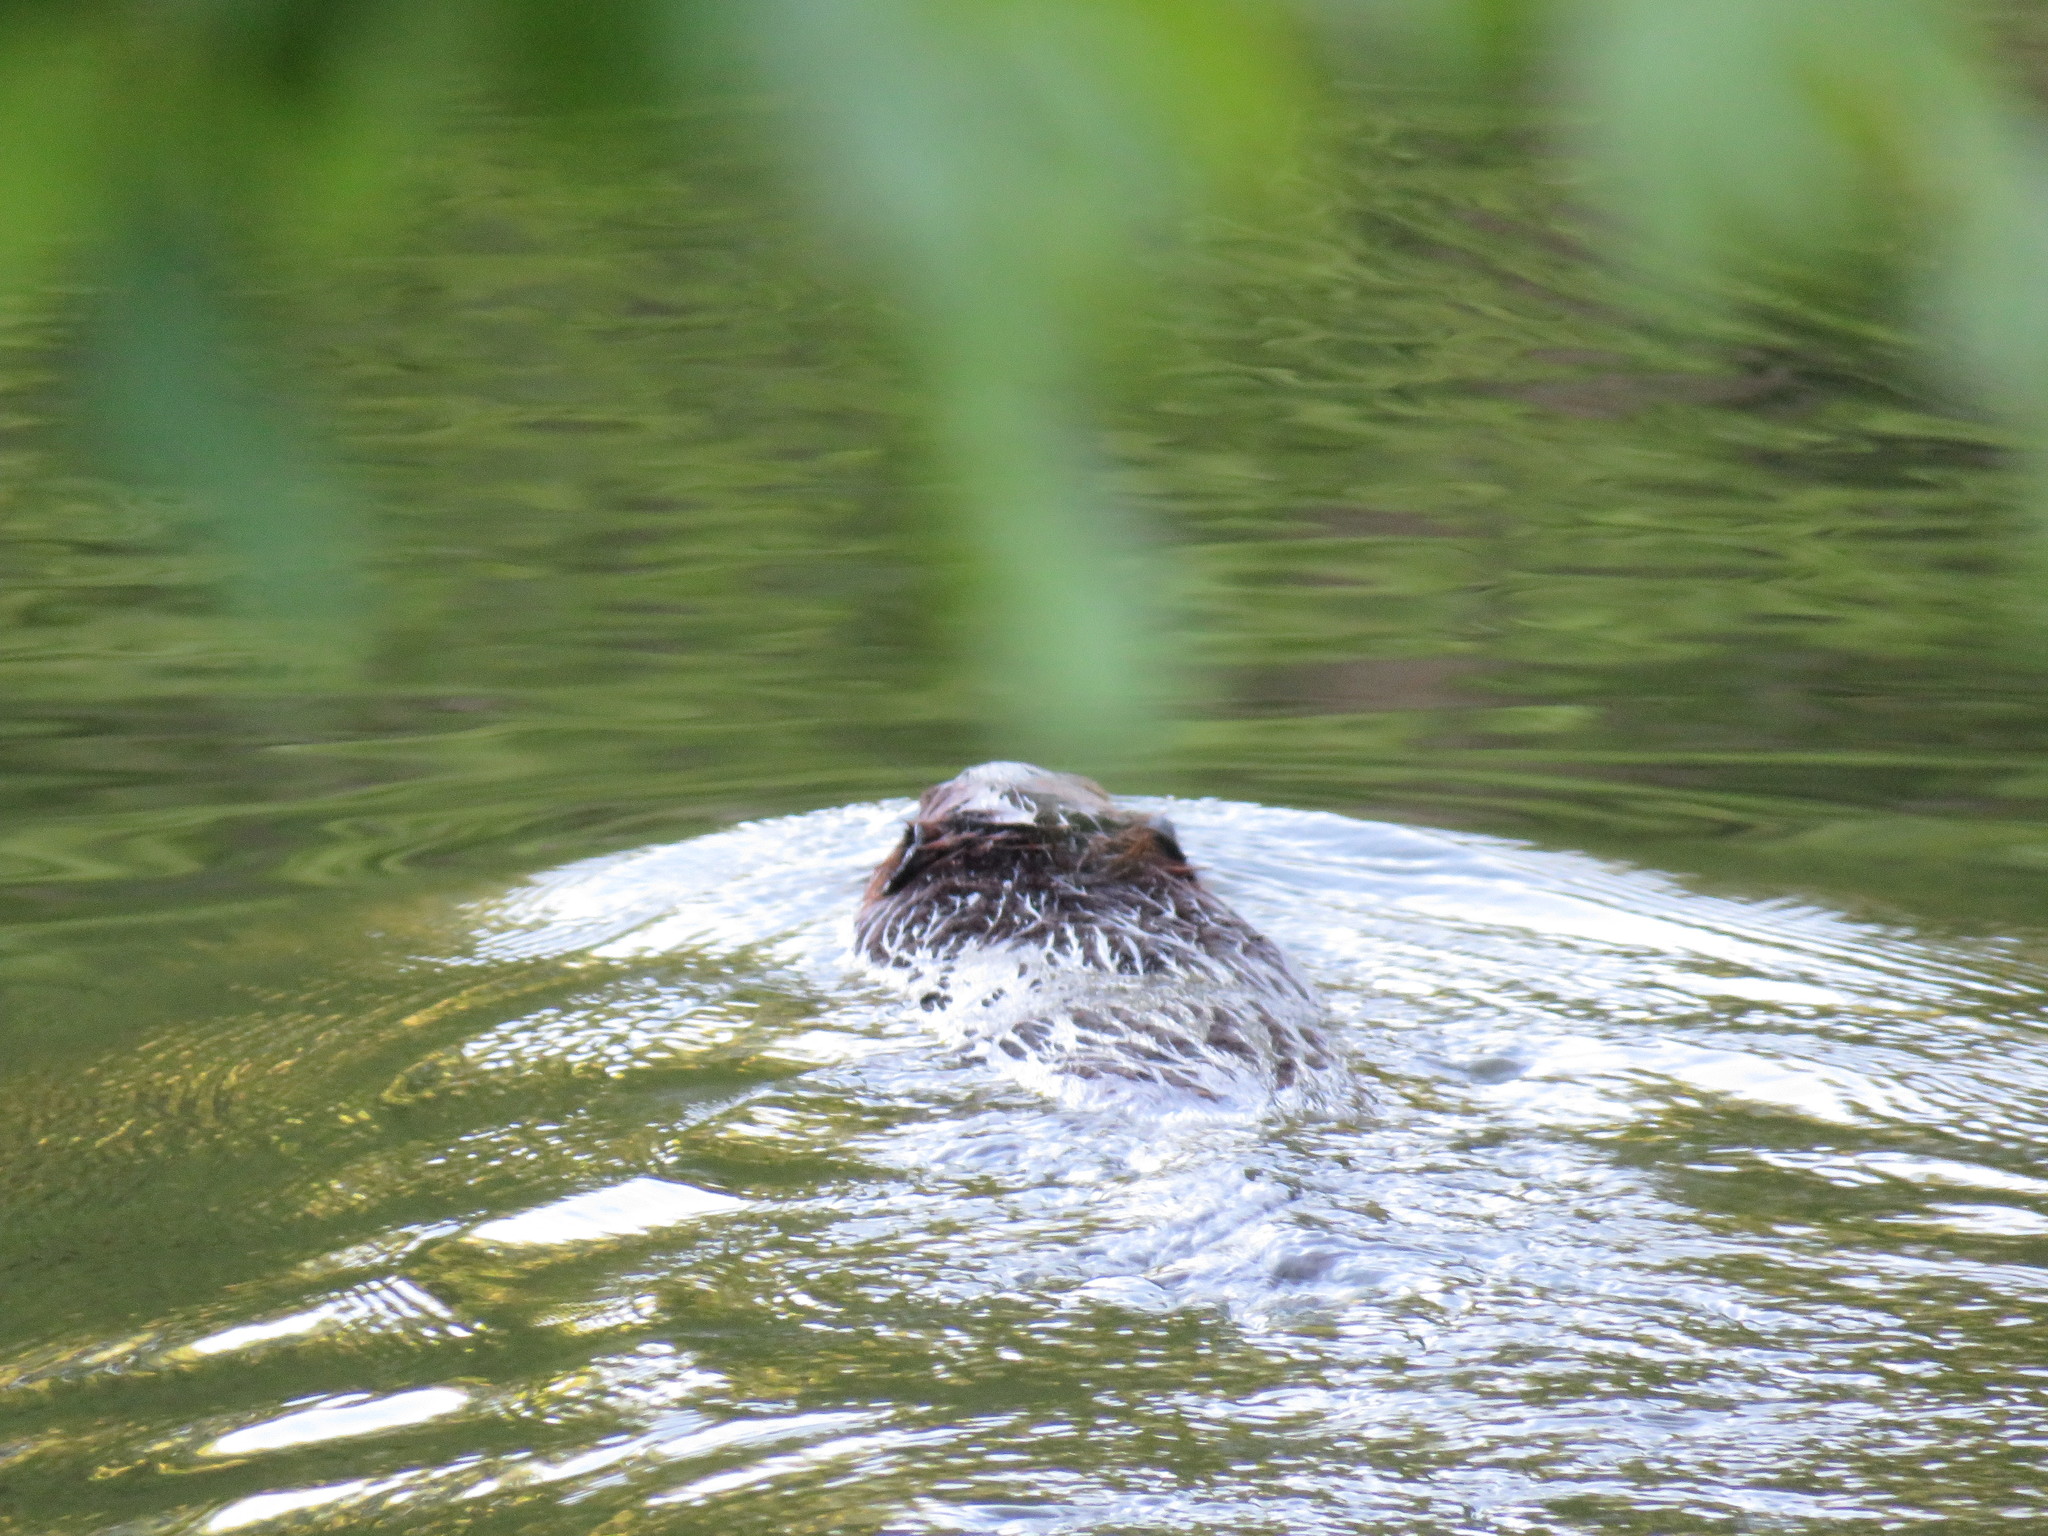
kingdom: Animalia
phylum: Chordata
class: Mammalia
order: Rodentia
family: Castoridae
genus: Castor
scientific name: Castor canadensis
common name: American beaver
